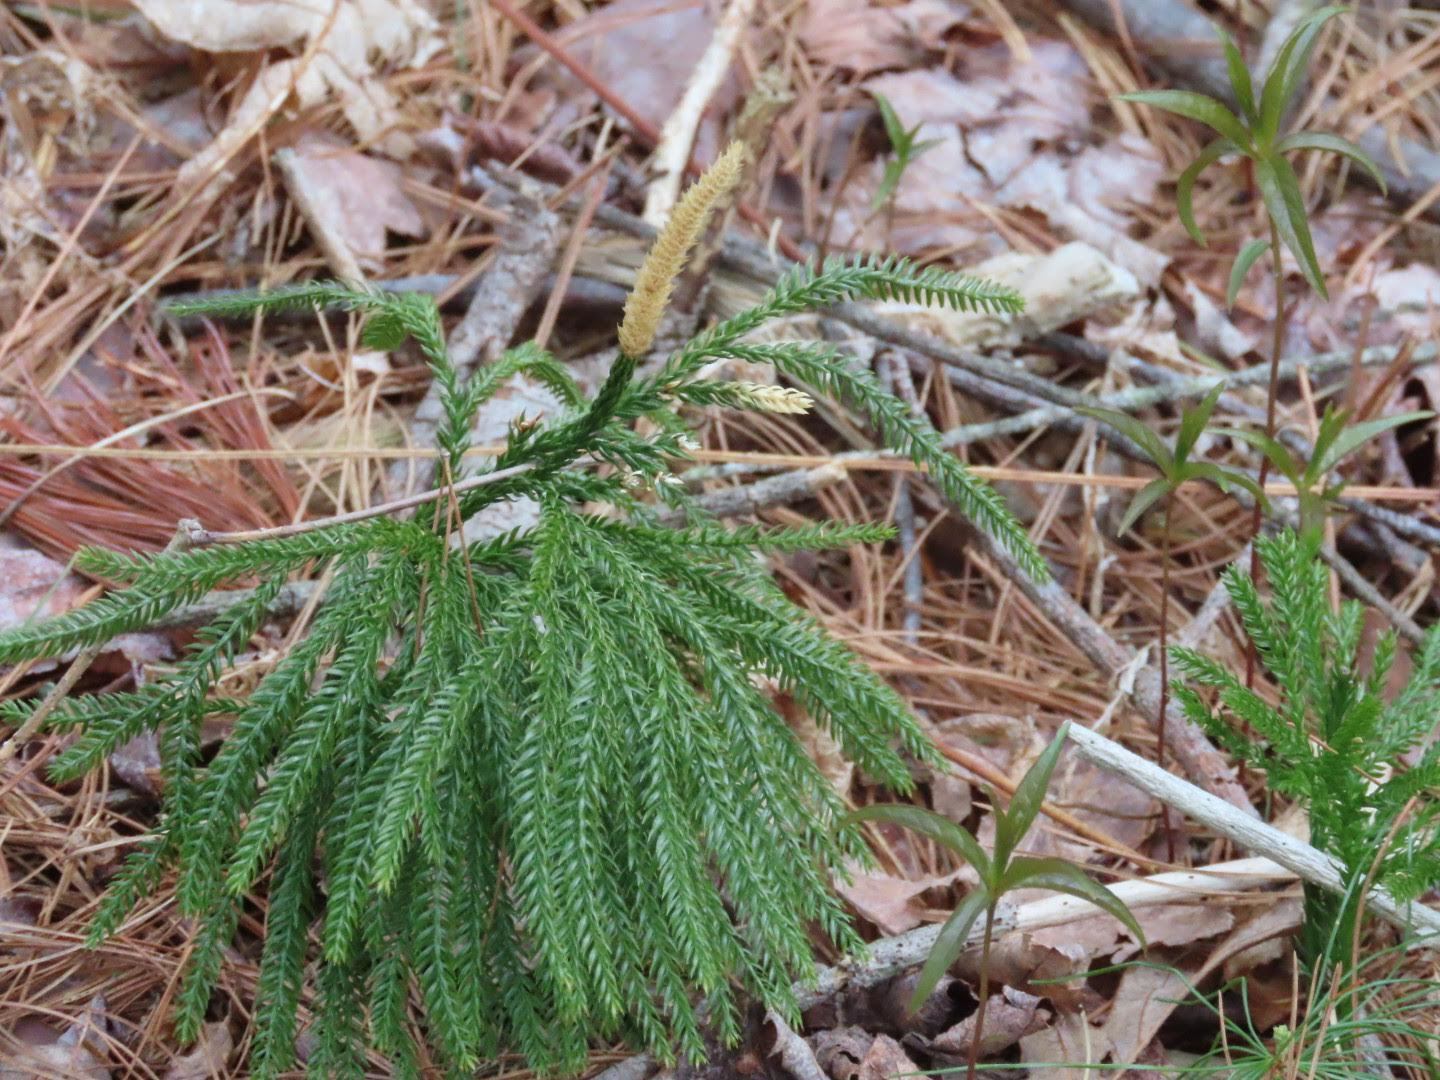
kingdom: Plantae
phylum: Tracheophyta
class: Lycopodiopsida
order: Lycopodiales
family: Lycopodiaceae
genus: Dendrolycopodium
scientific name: Dendrolycopodium obscurum
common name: Common ground-pine
